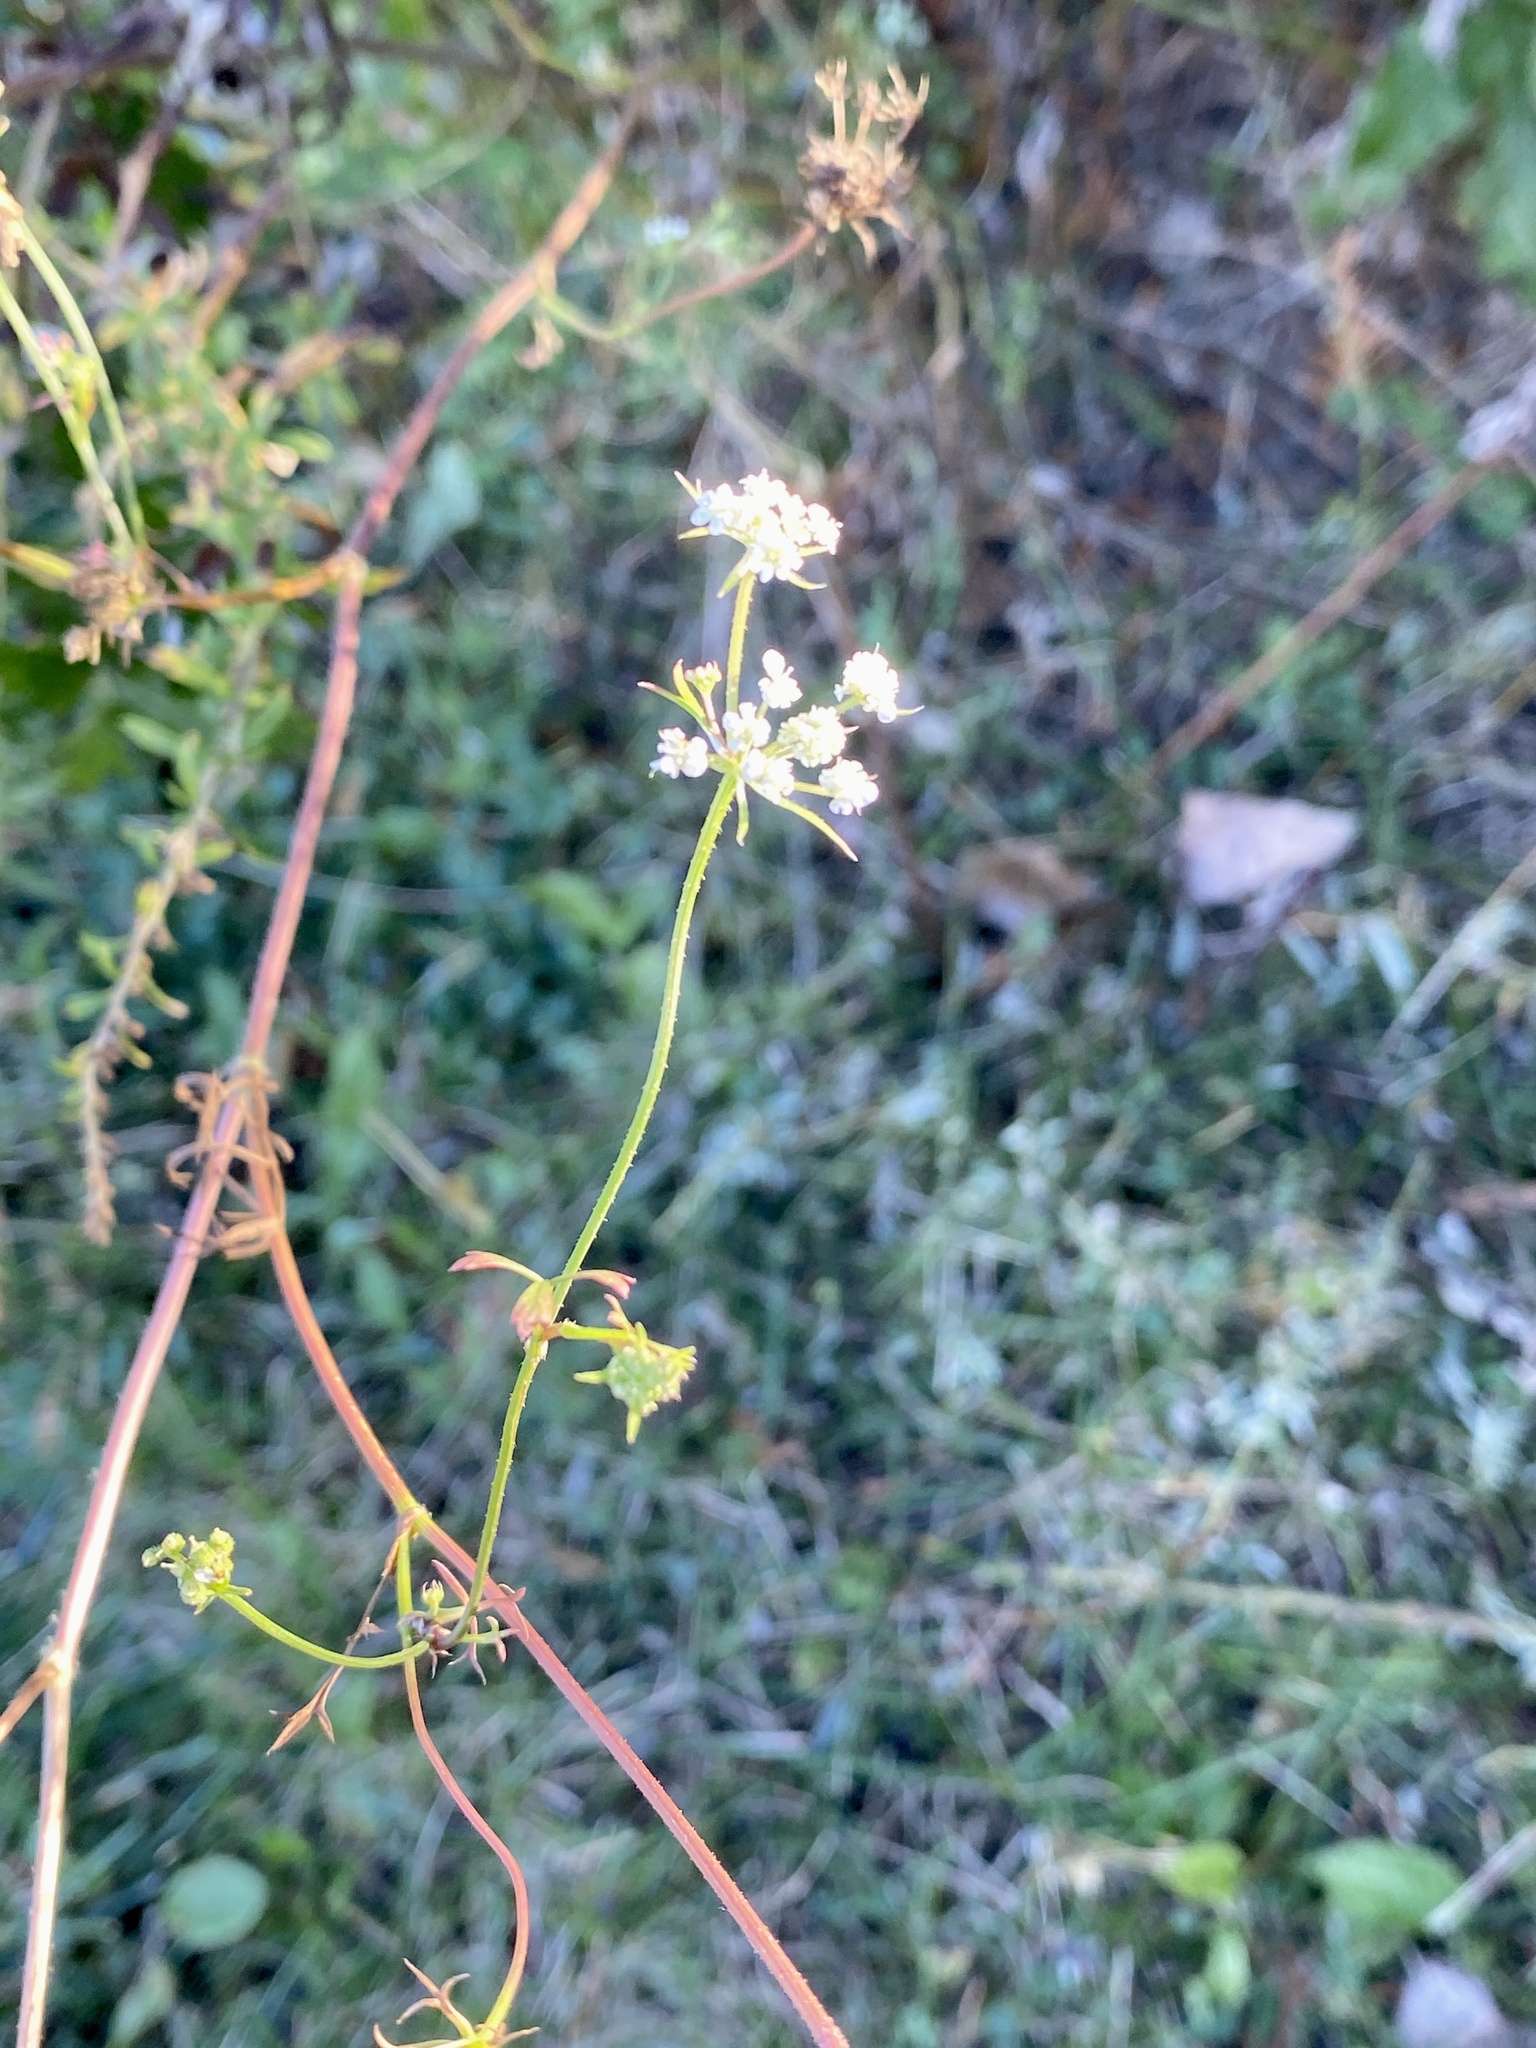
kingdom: Plantae
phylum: Tracheophyta
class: Magnoliopsida
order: Apiales
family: Apiaceae
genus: Daucus
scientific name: Daucus carota
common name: Wild carrot
